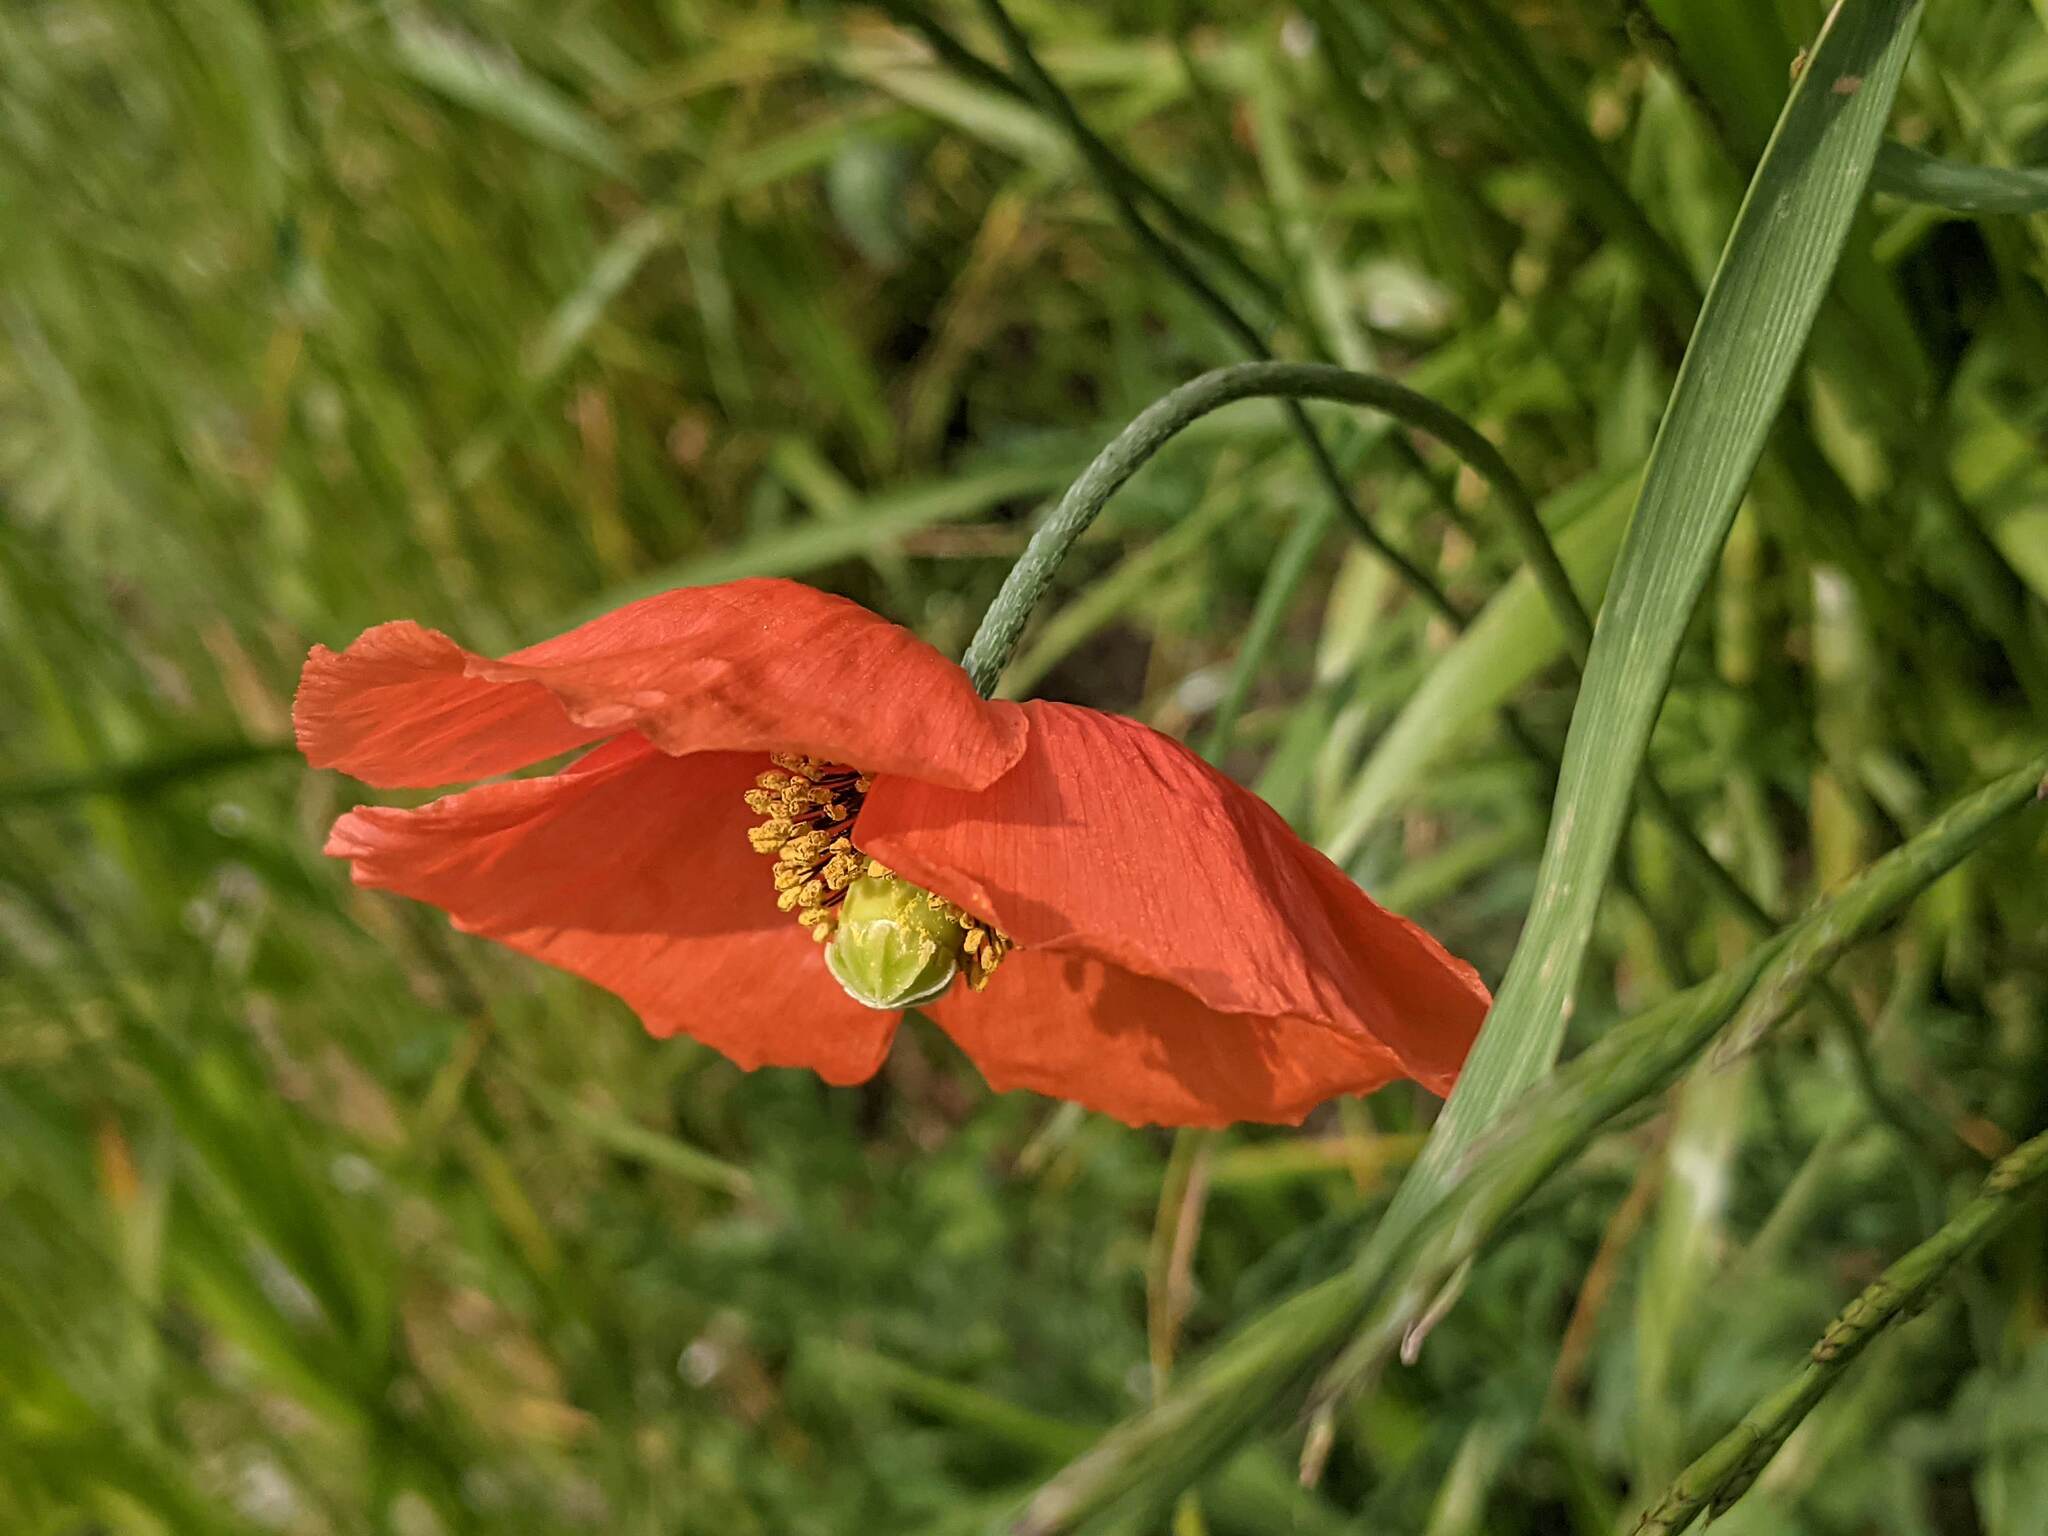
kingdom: Plantae
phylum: Tracheophyta
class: Magnoliopsida
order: Ranunculales
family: Papaveraceae
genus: Papaver
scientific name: Papaver rhoeas
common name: Corn poppy
